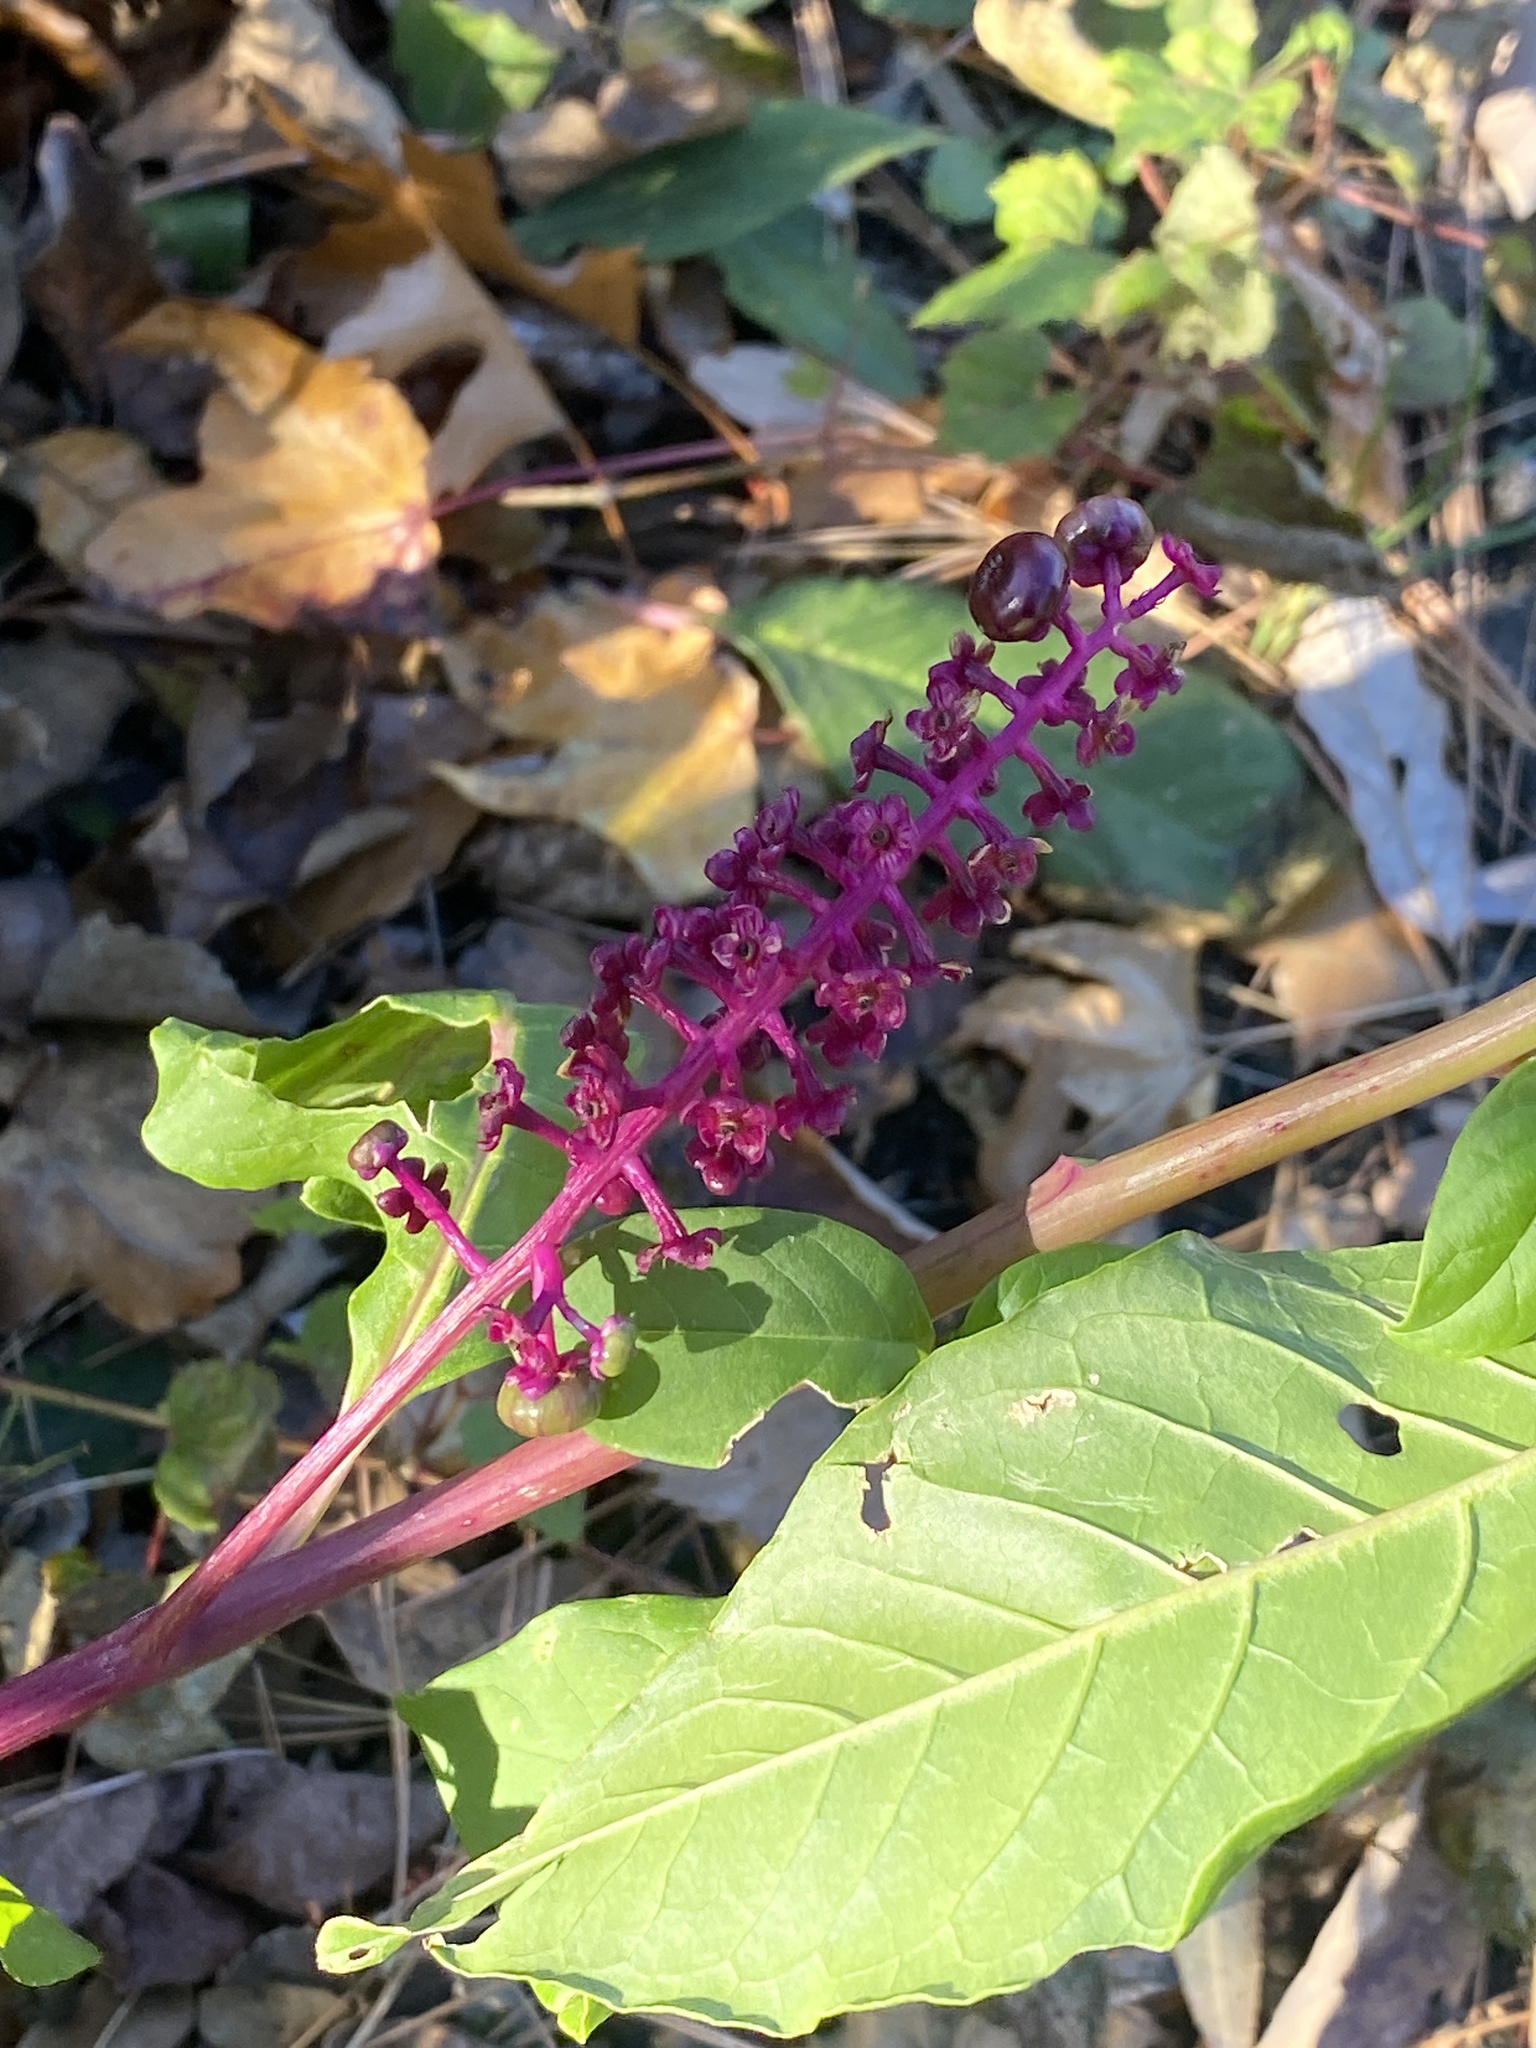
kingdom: Plantae
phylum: Tracheophyta
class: Magnoliopsida
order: Caryophyllales
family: Phytolaccaceae
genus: Phytolacca
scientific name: Phytolacca americana
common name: American pokeweed
